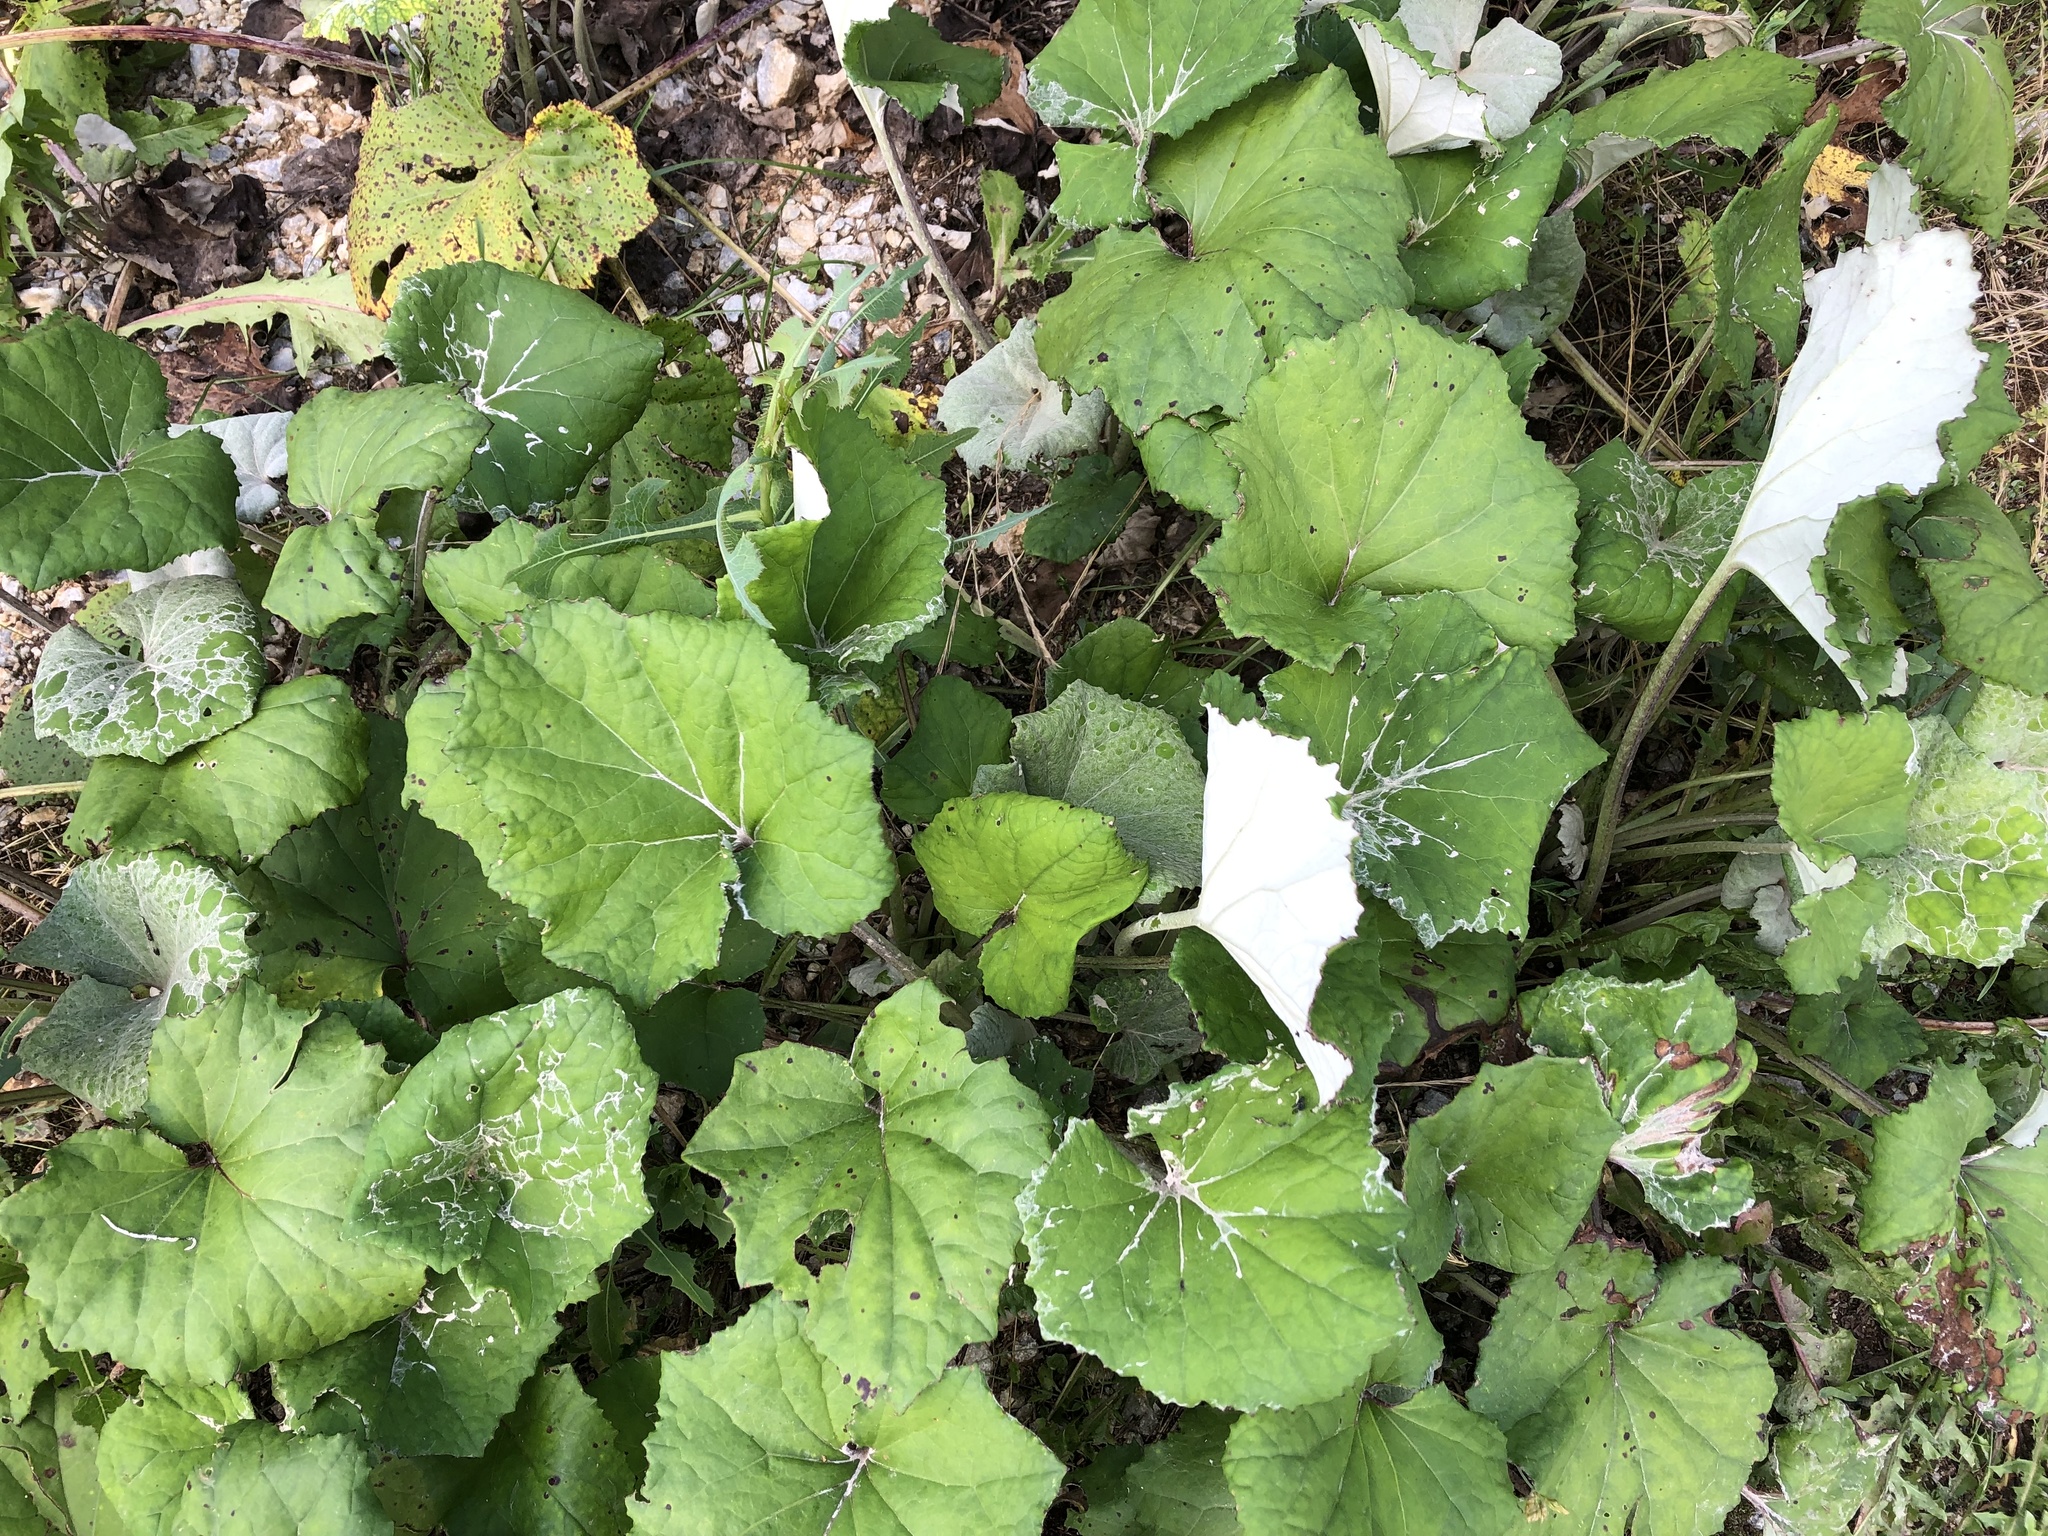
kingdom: Plantae
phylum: Tracheophyta
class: Magnoliopsida
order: Asterales
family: Asteraceae
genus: Tussilago
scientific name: Tussilago farfara
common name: Coltsfoot
